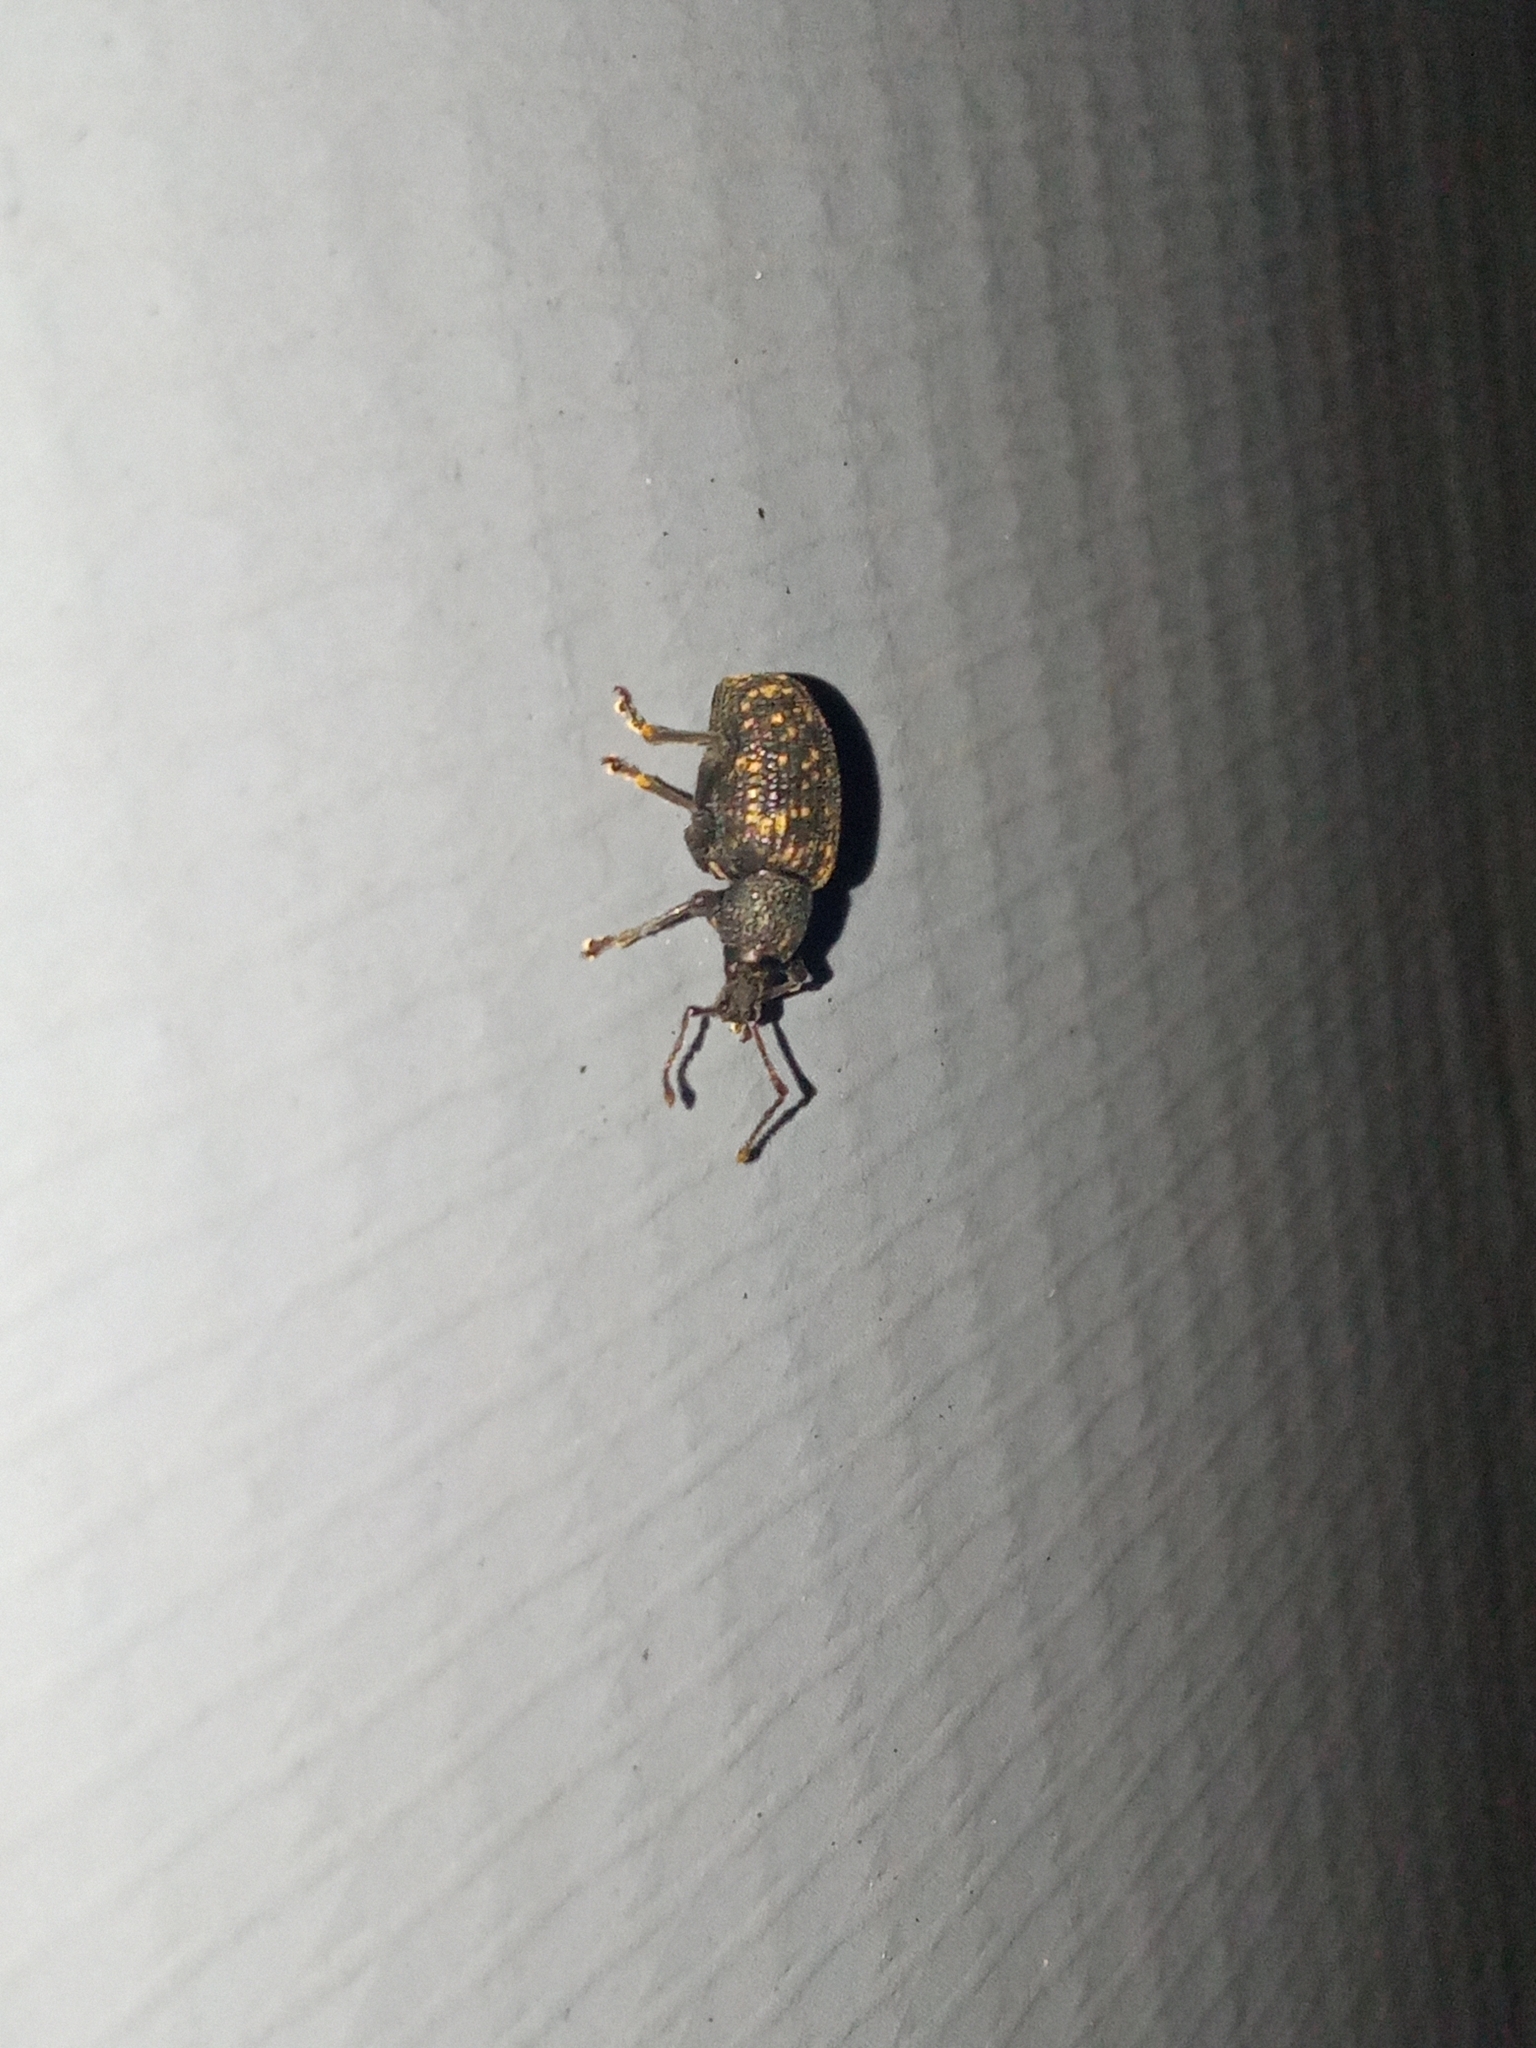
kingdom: Animalia
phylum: Arthropoda
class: Insecta
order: Coleoptera
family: Curculionidae
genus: Otiorhynchus
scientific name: Otiorhynchus sulcatus
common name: Black vine weevil
